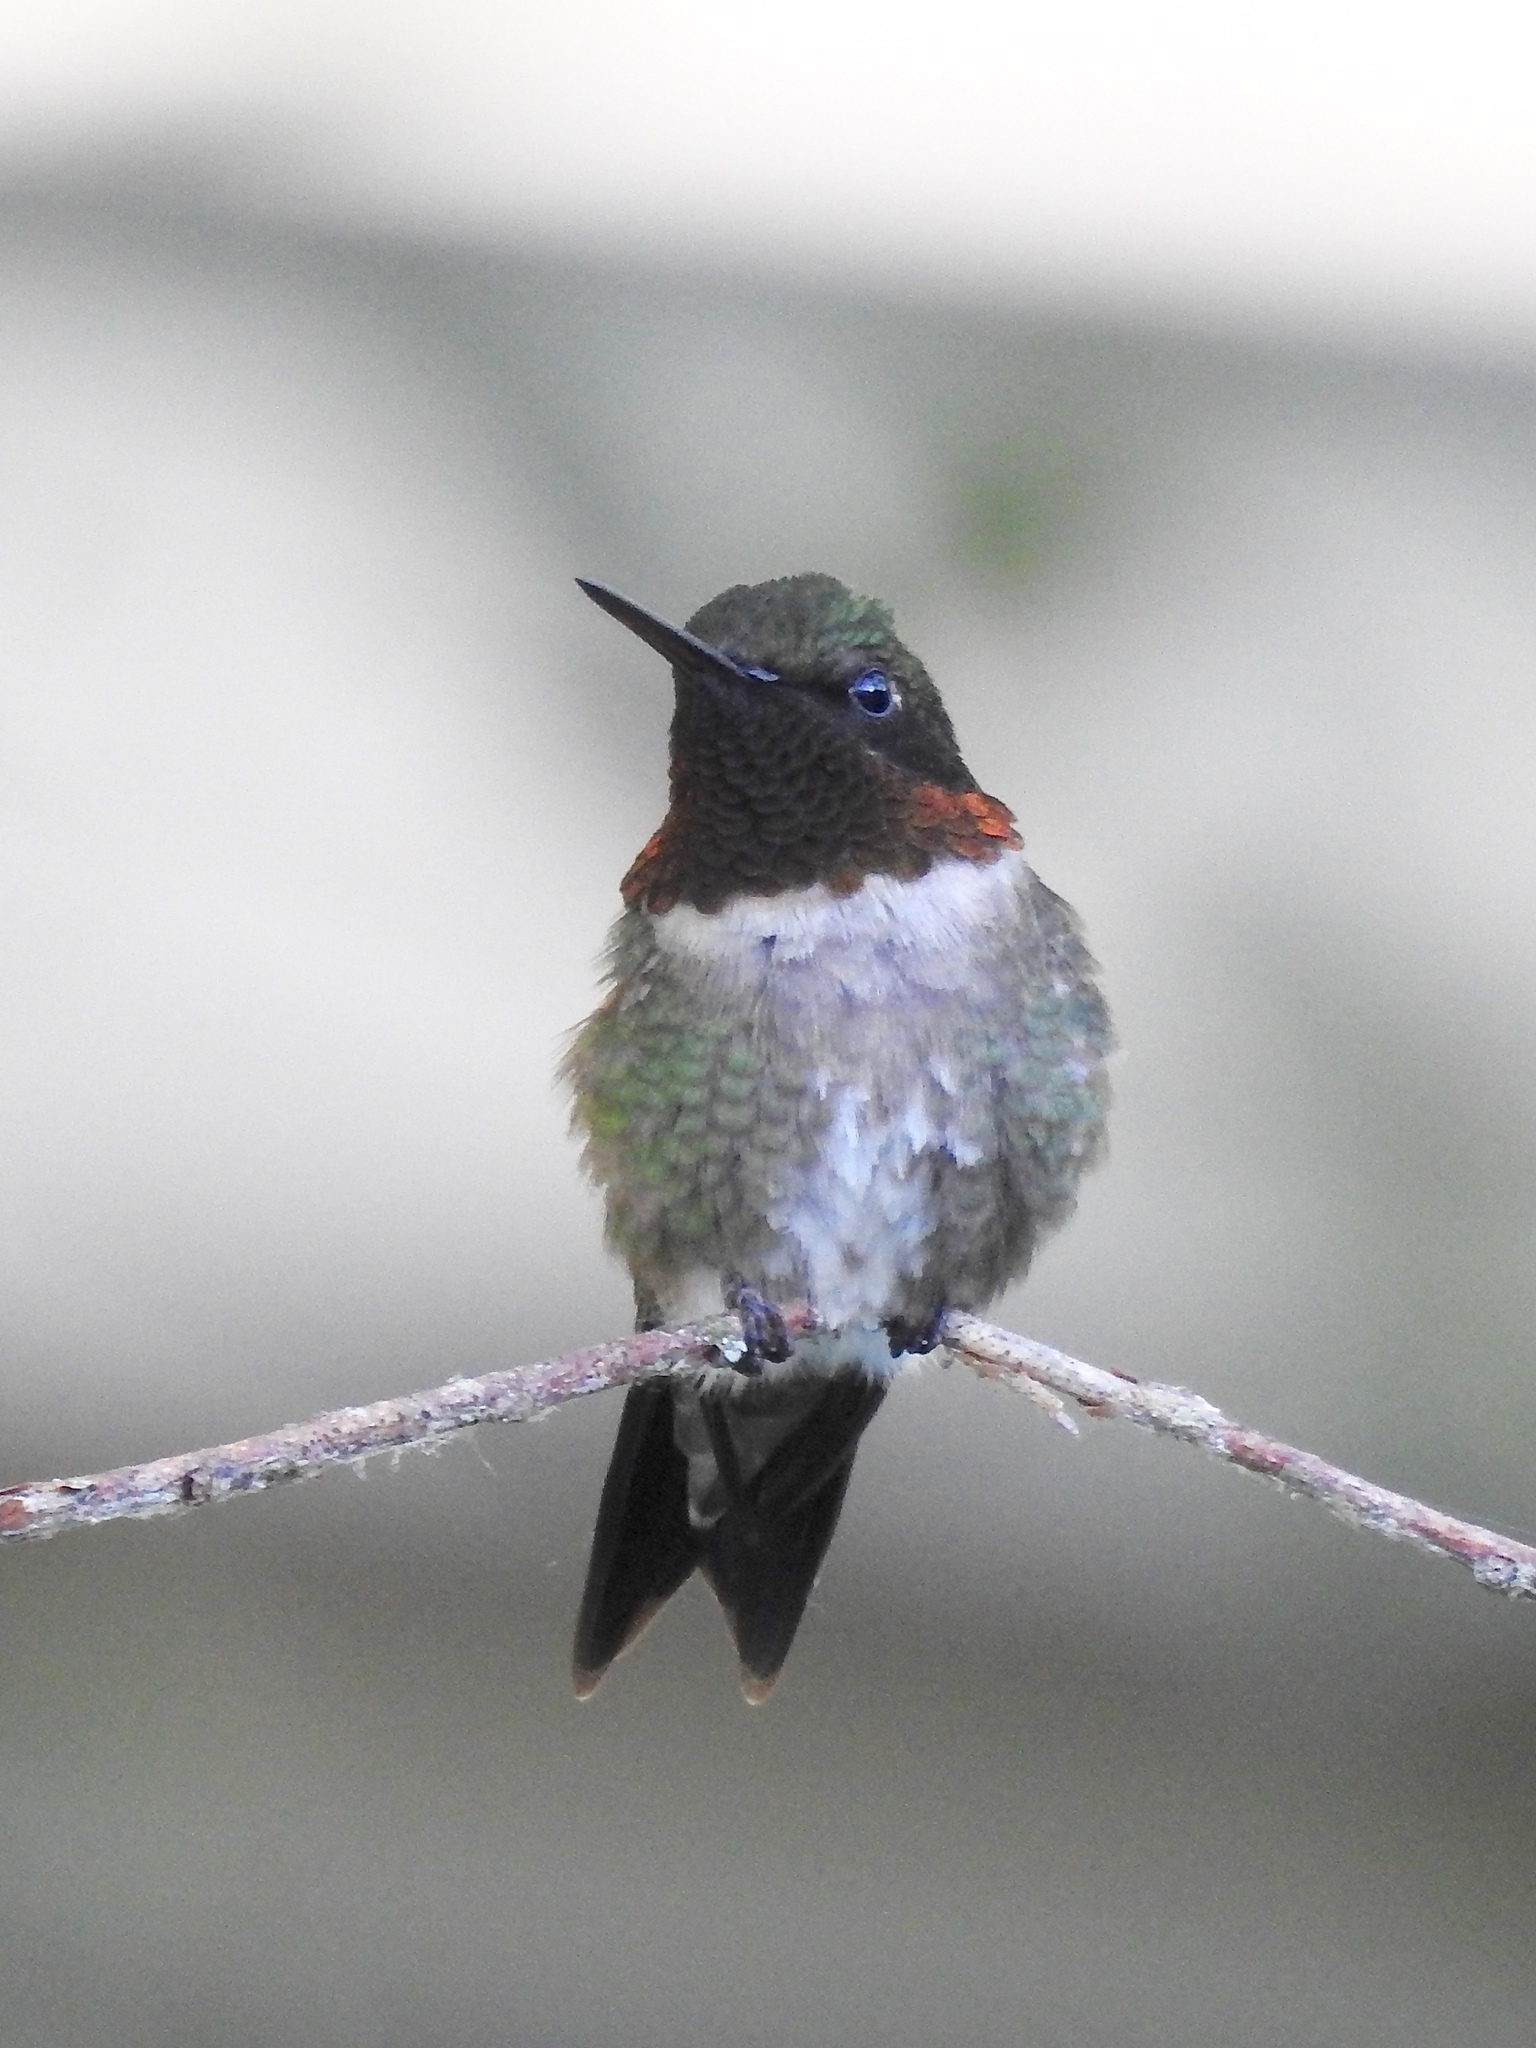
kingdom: Animalia
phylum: Chordata
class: Aves
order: Apodiformes
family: Trochilidae
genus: Archilochus
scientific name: Archilochus colubris
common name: Ruby-throated hummingbird
